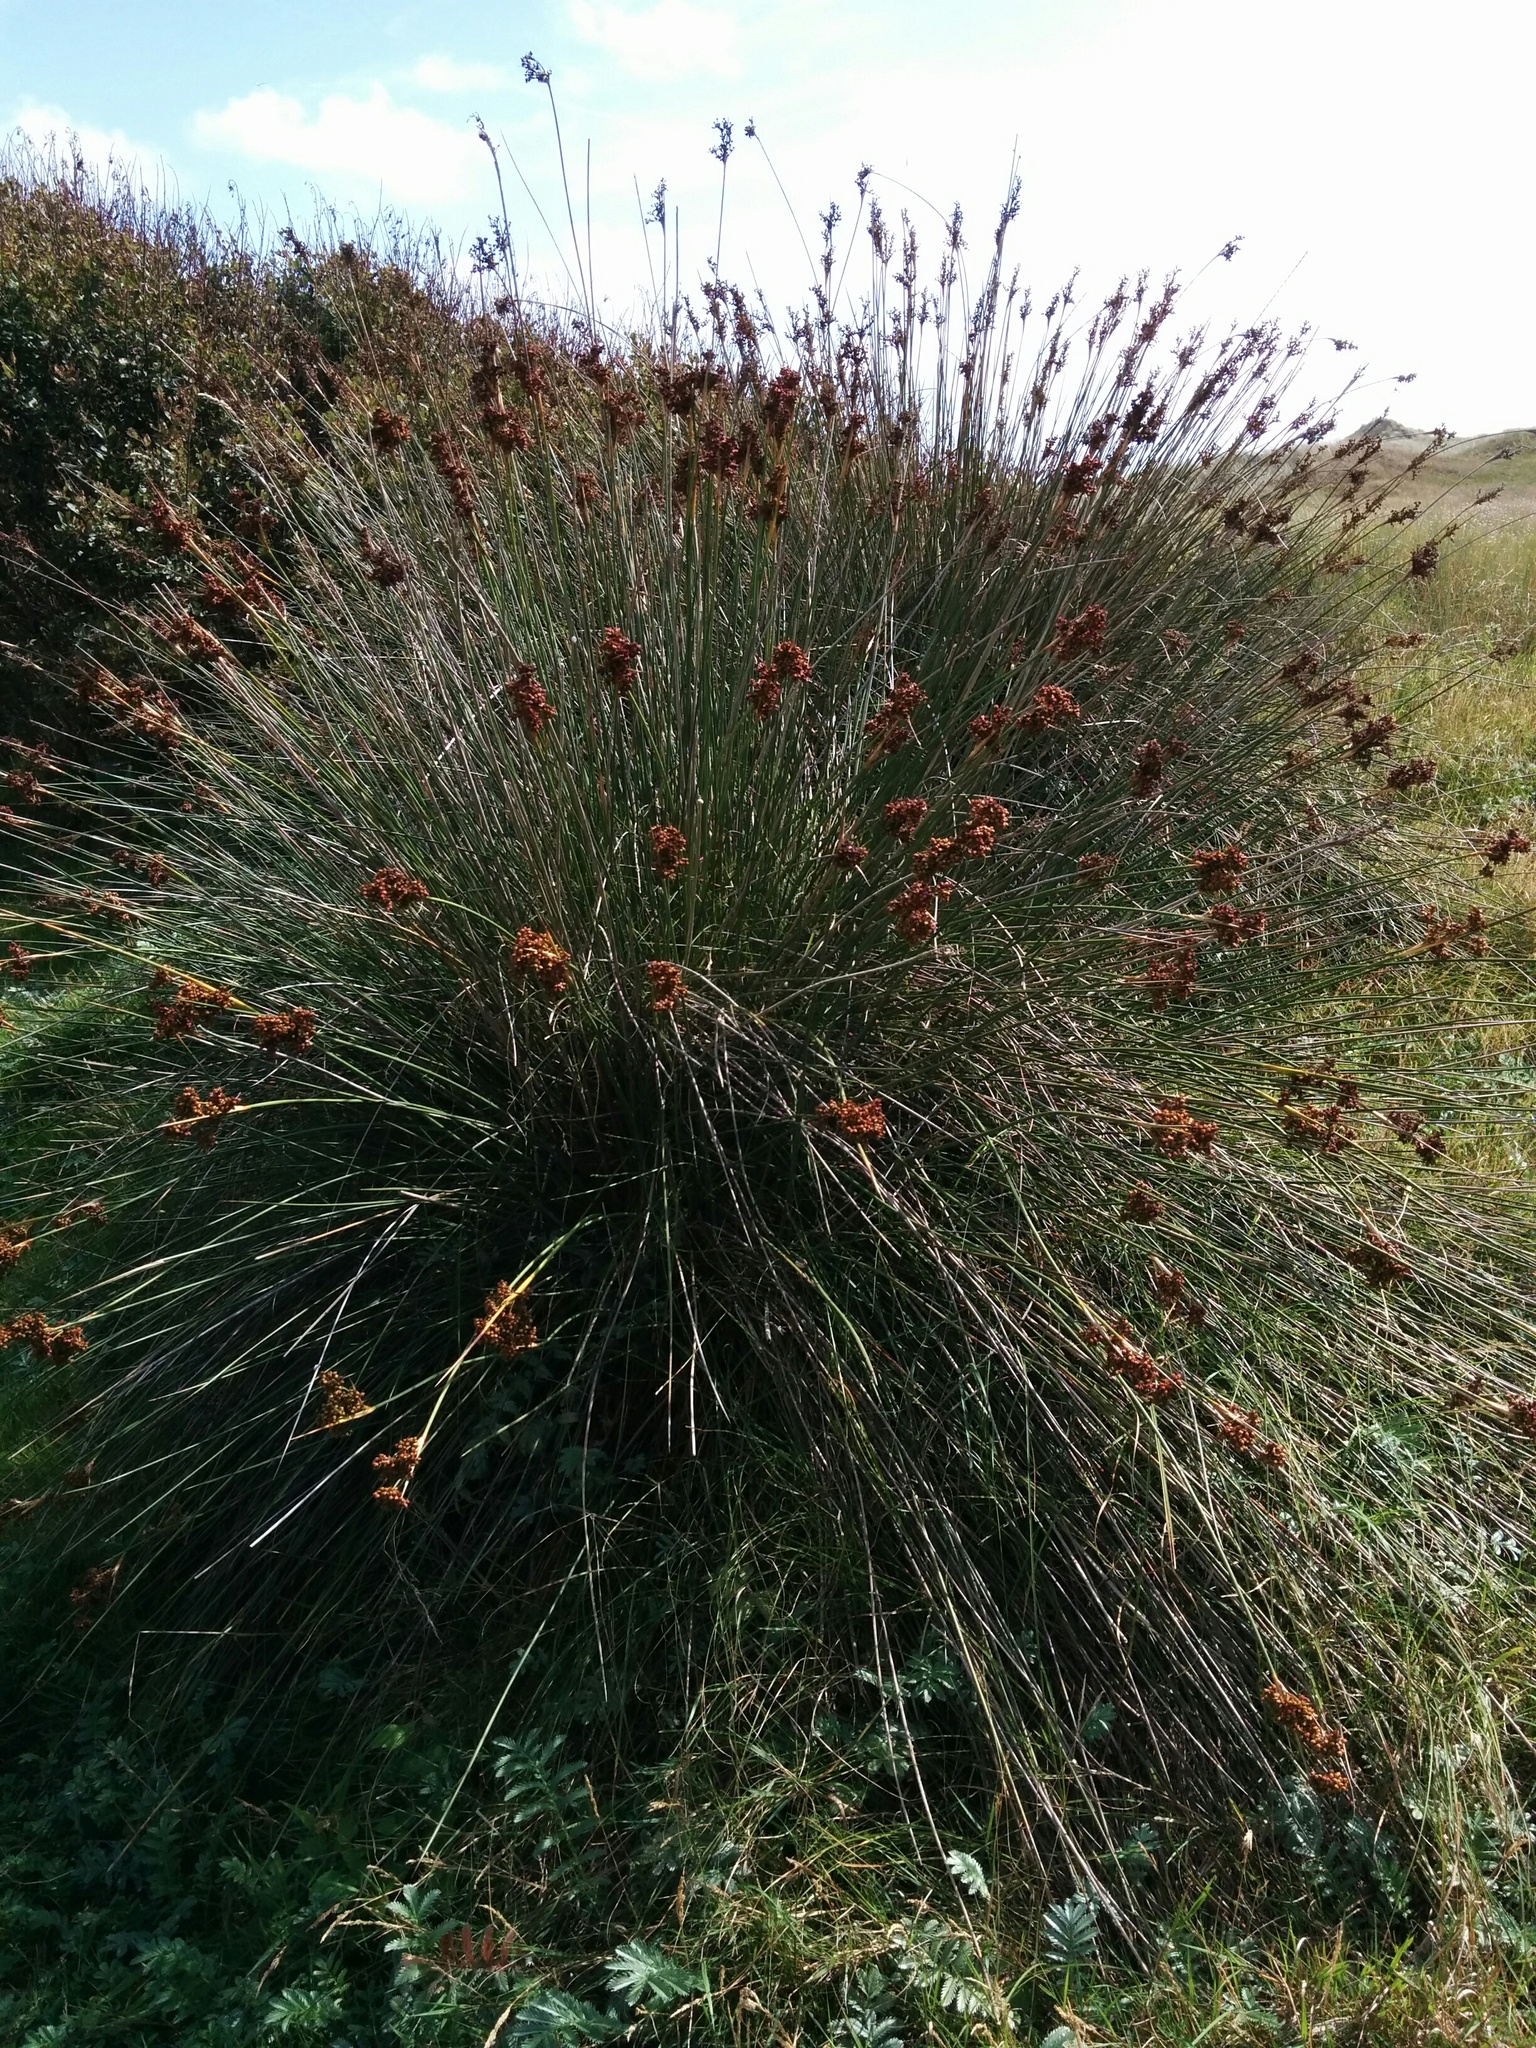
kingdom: Plantae
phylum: Tracheophyta
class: Liliopsida
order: Poales
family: Juncaceae
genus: Juncus
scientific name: Juncus acutus
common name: Sharp rush
